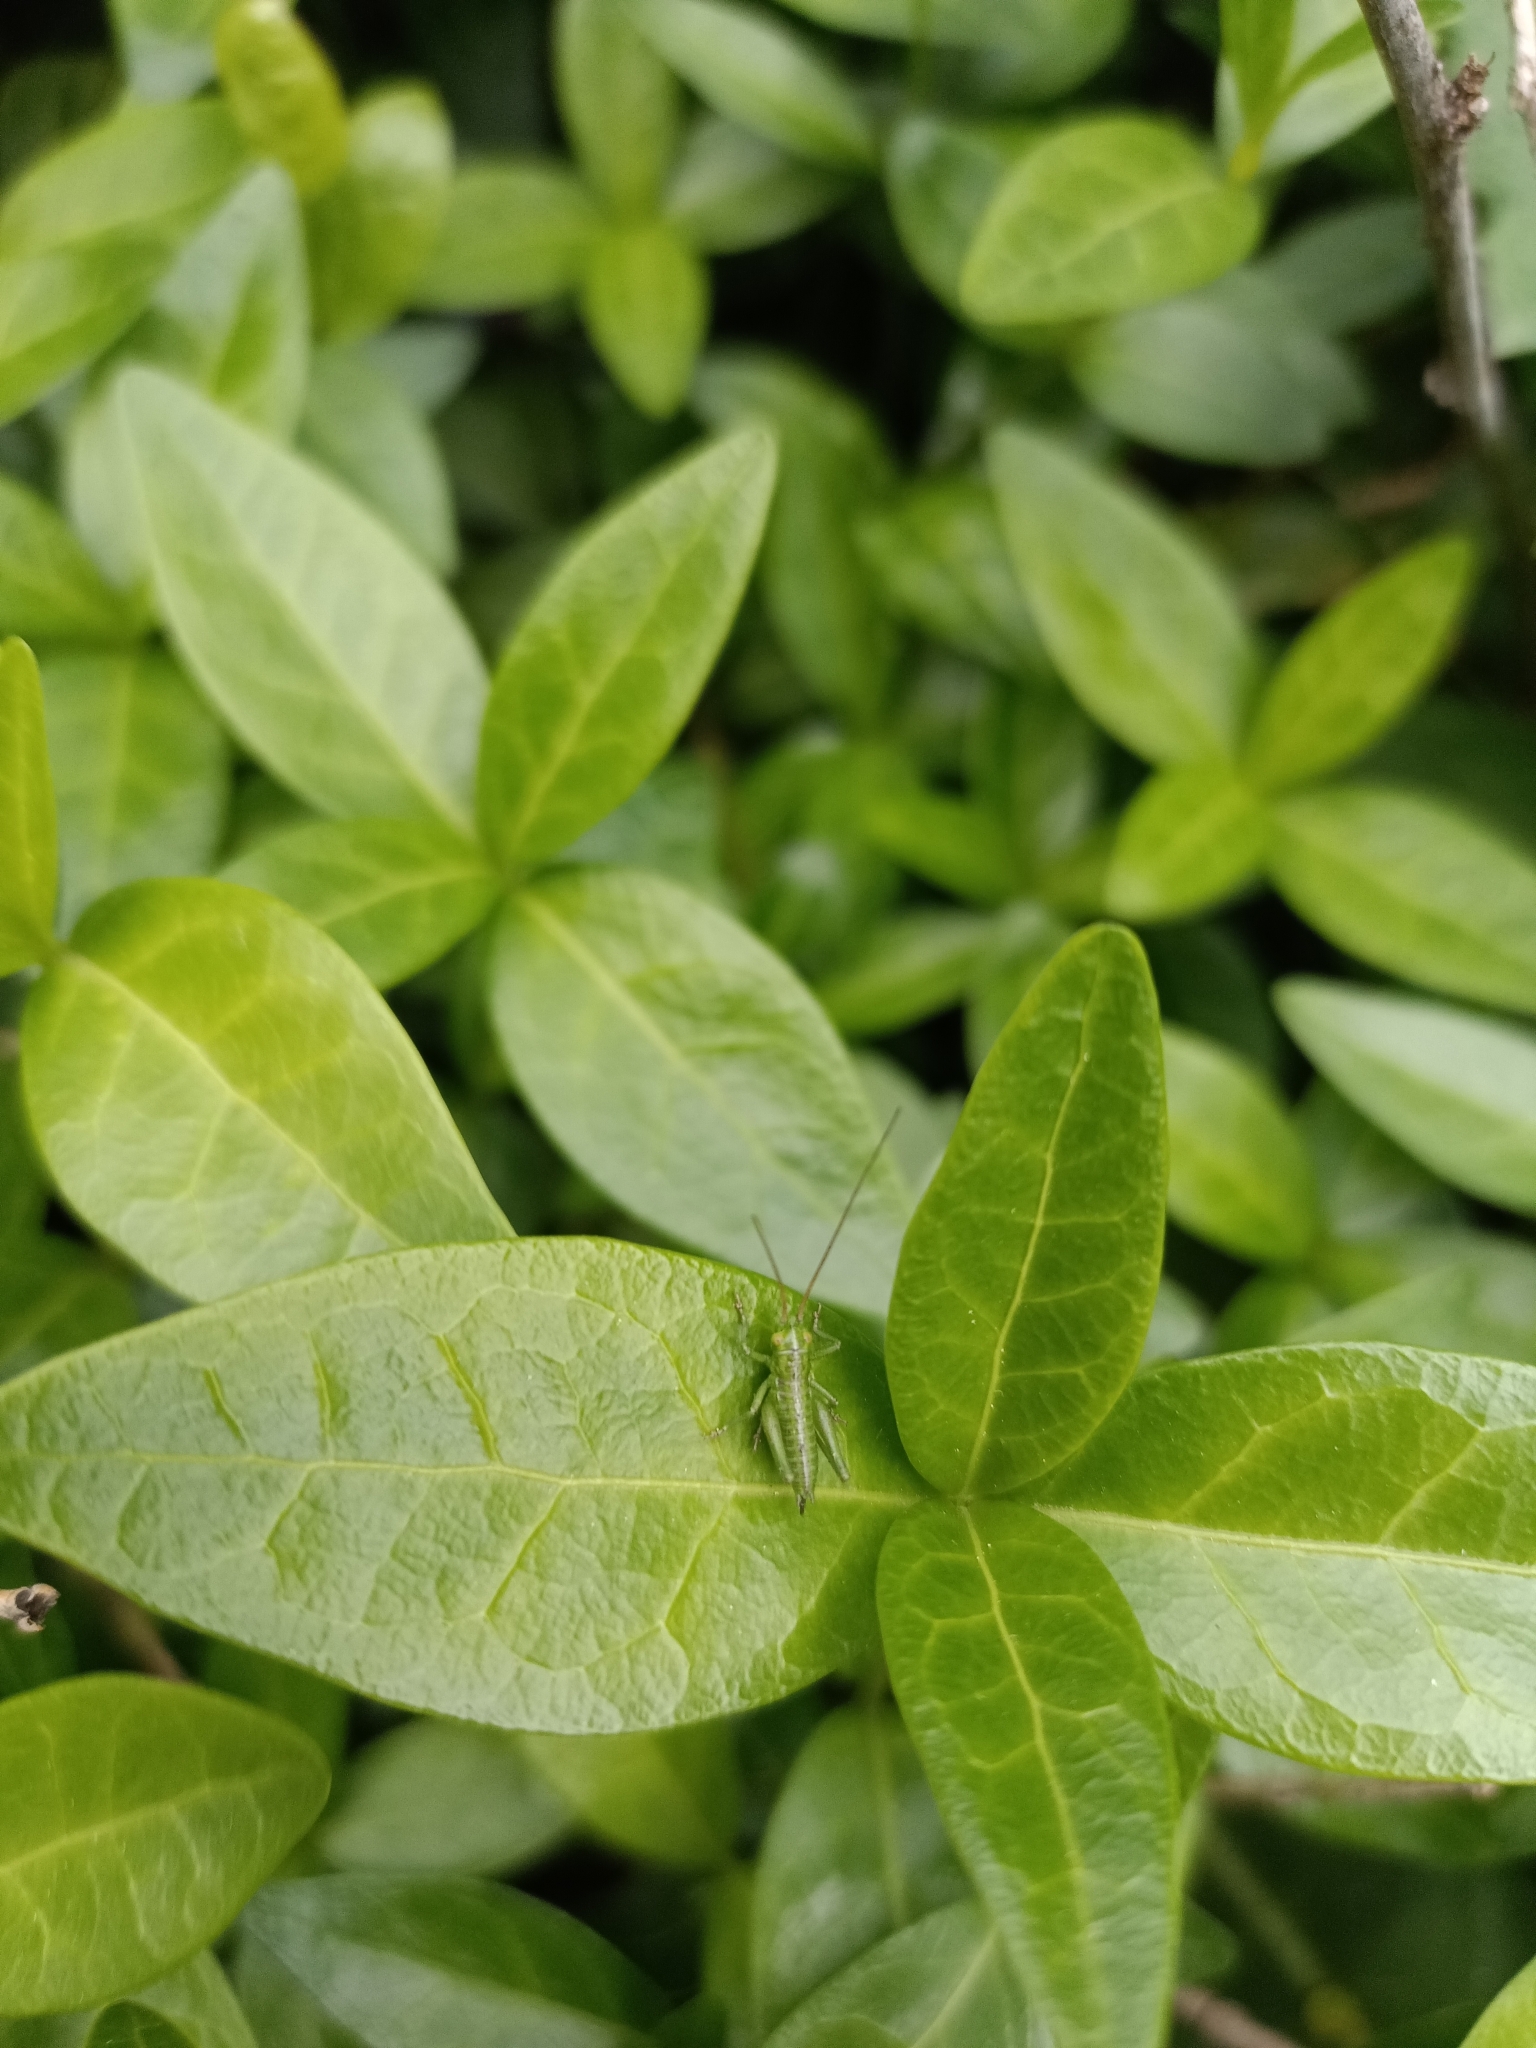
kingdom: Animalia
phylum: Arthropoda
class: Insecta
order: Orthoptera
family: Tettigoniidae
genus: Tettigonia
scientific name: Tettigonia viridissima
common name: Great green bush-cricket
